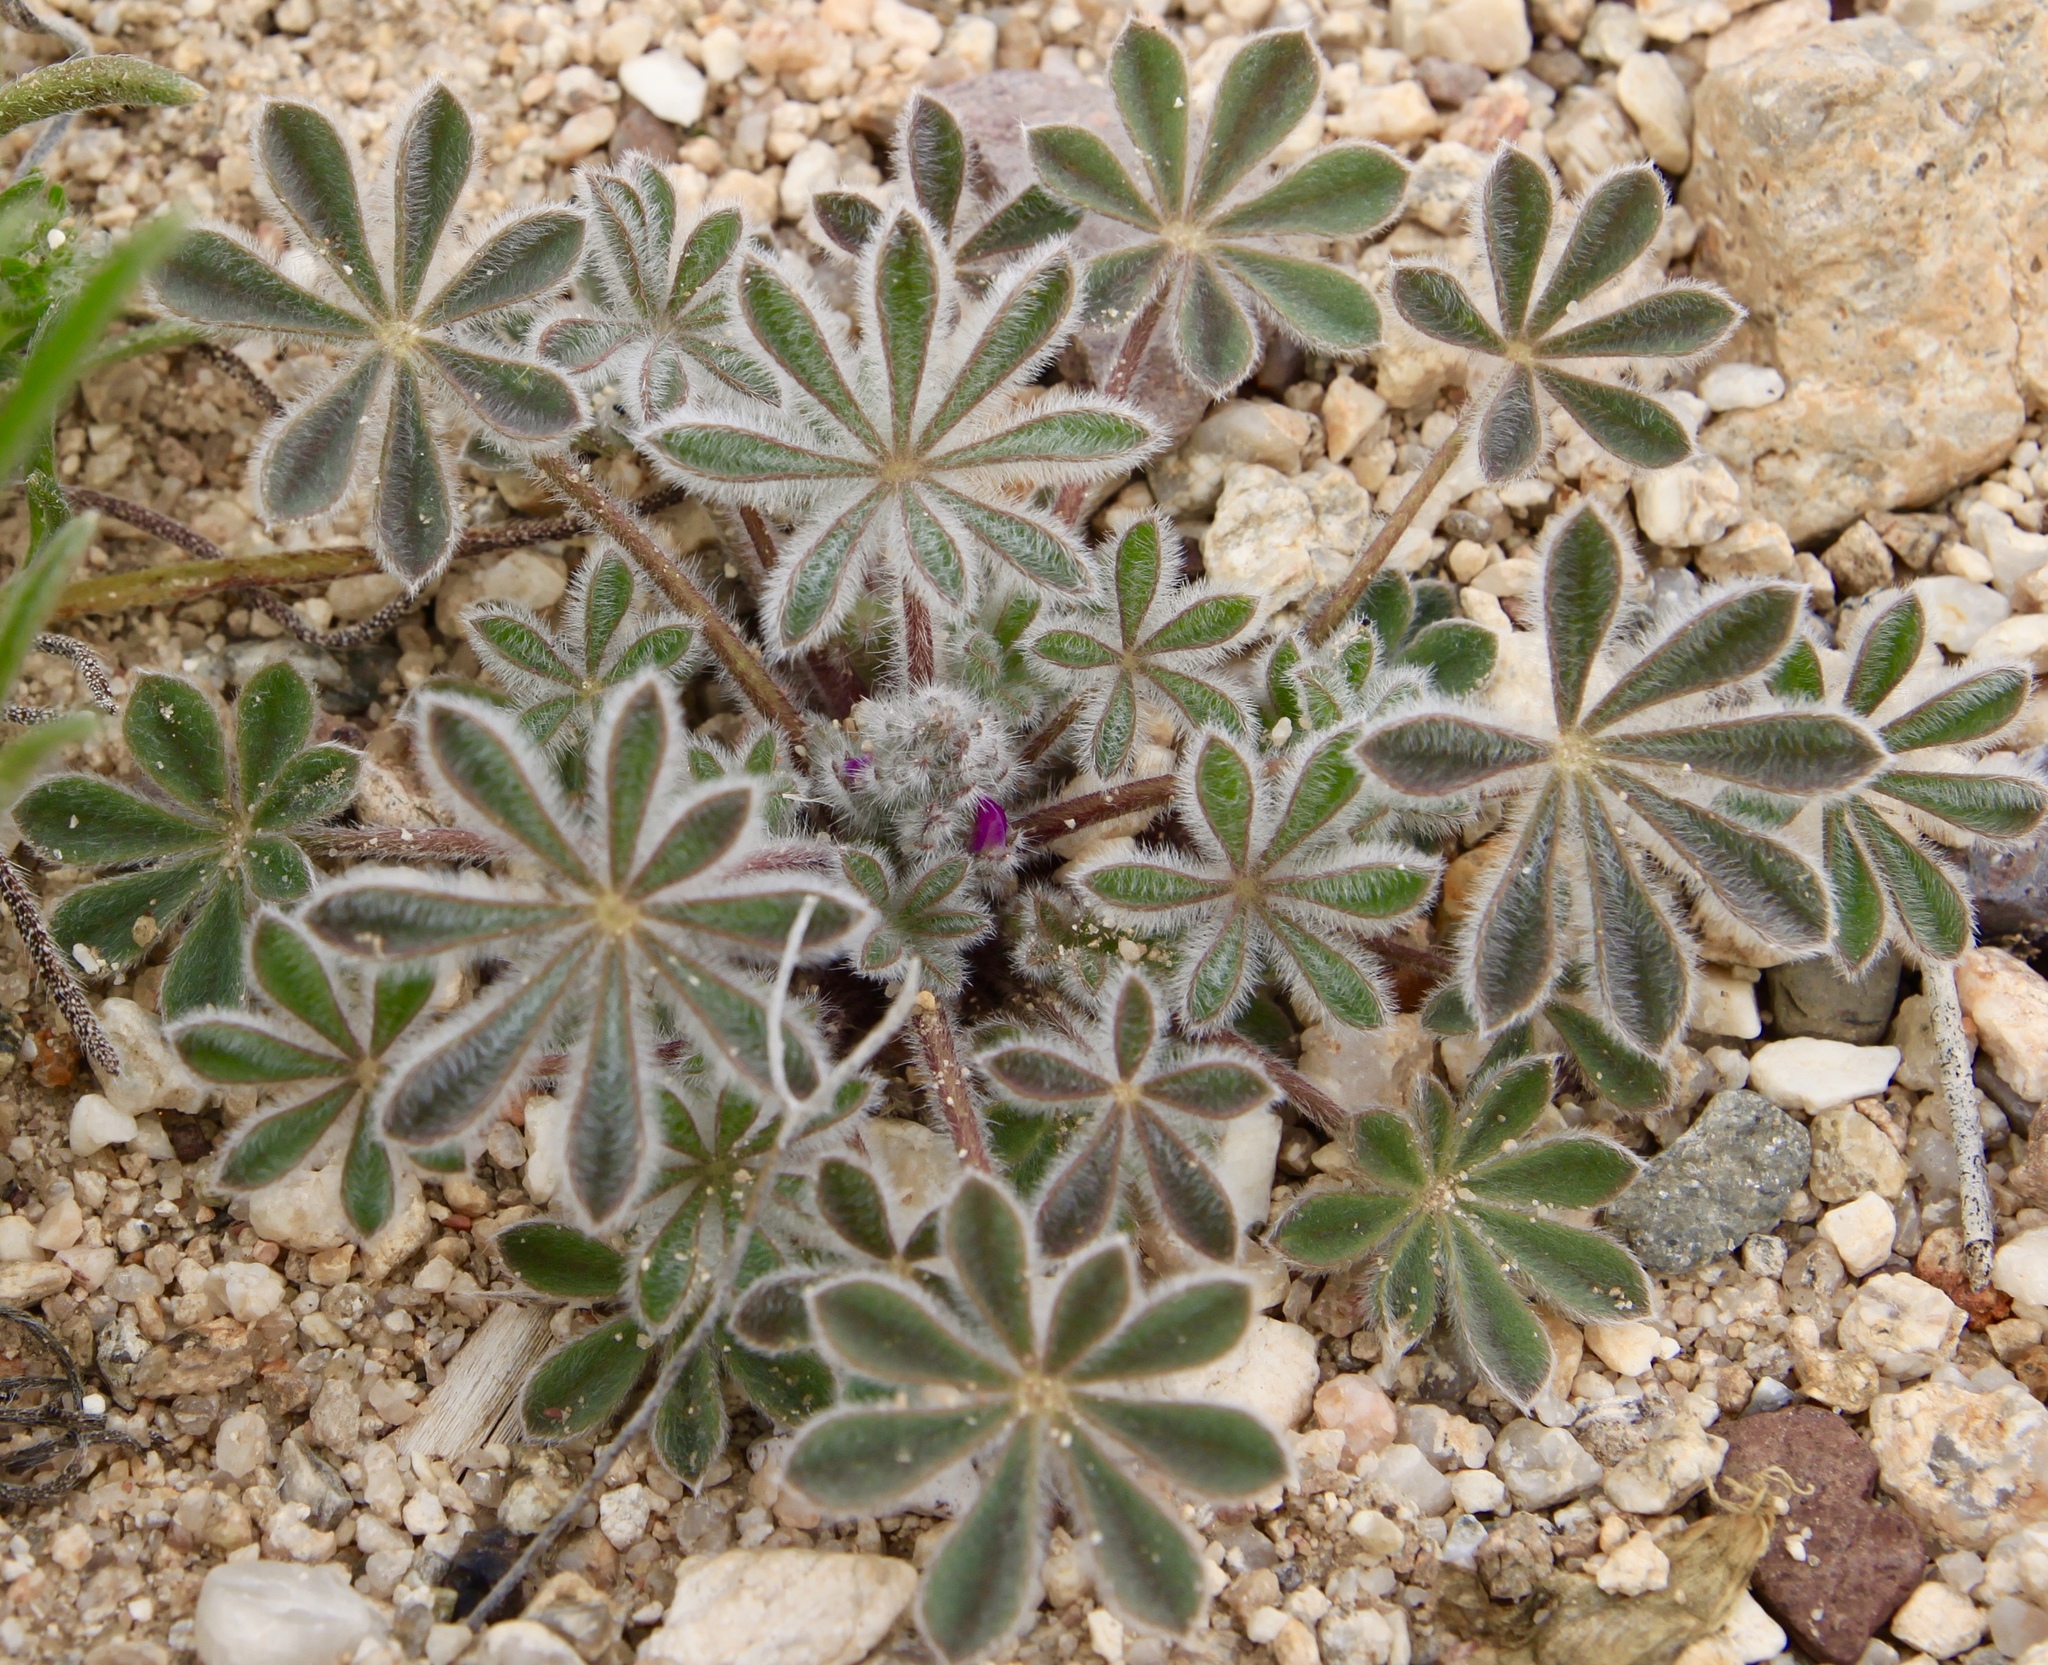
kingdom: Plantae
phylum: Tracheophyta
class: Magnoliopsida
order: Fabales
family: Fabaceae
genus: Lupinus
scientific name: Lupinus concinnus
